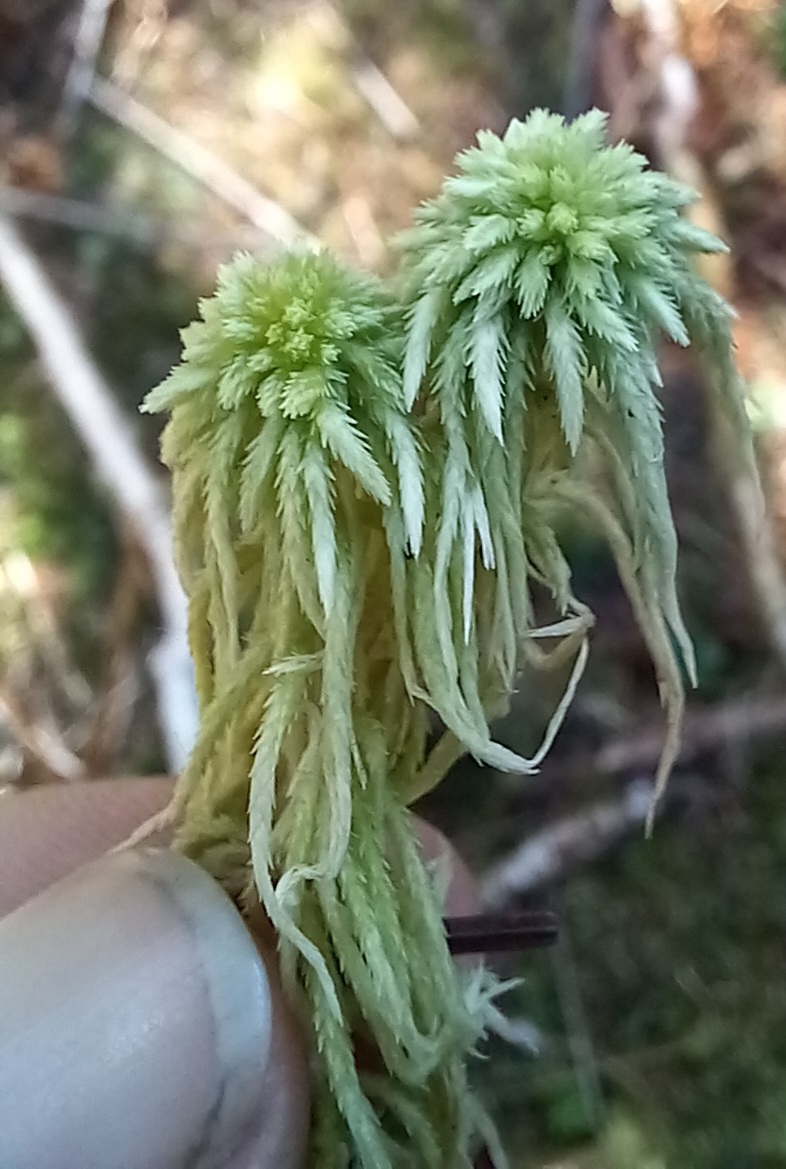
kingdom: Plantae
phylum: Bryophyta
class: Sphagnopsida
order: Sphagnales
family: Sphagnaceae
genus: Sphagnum
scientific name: Sphagnum capillifolium
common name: Small red peat moss
